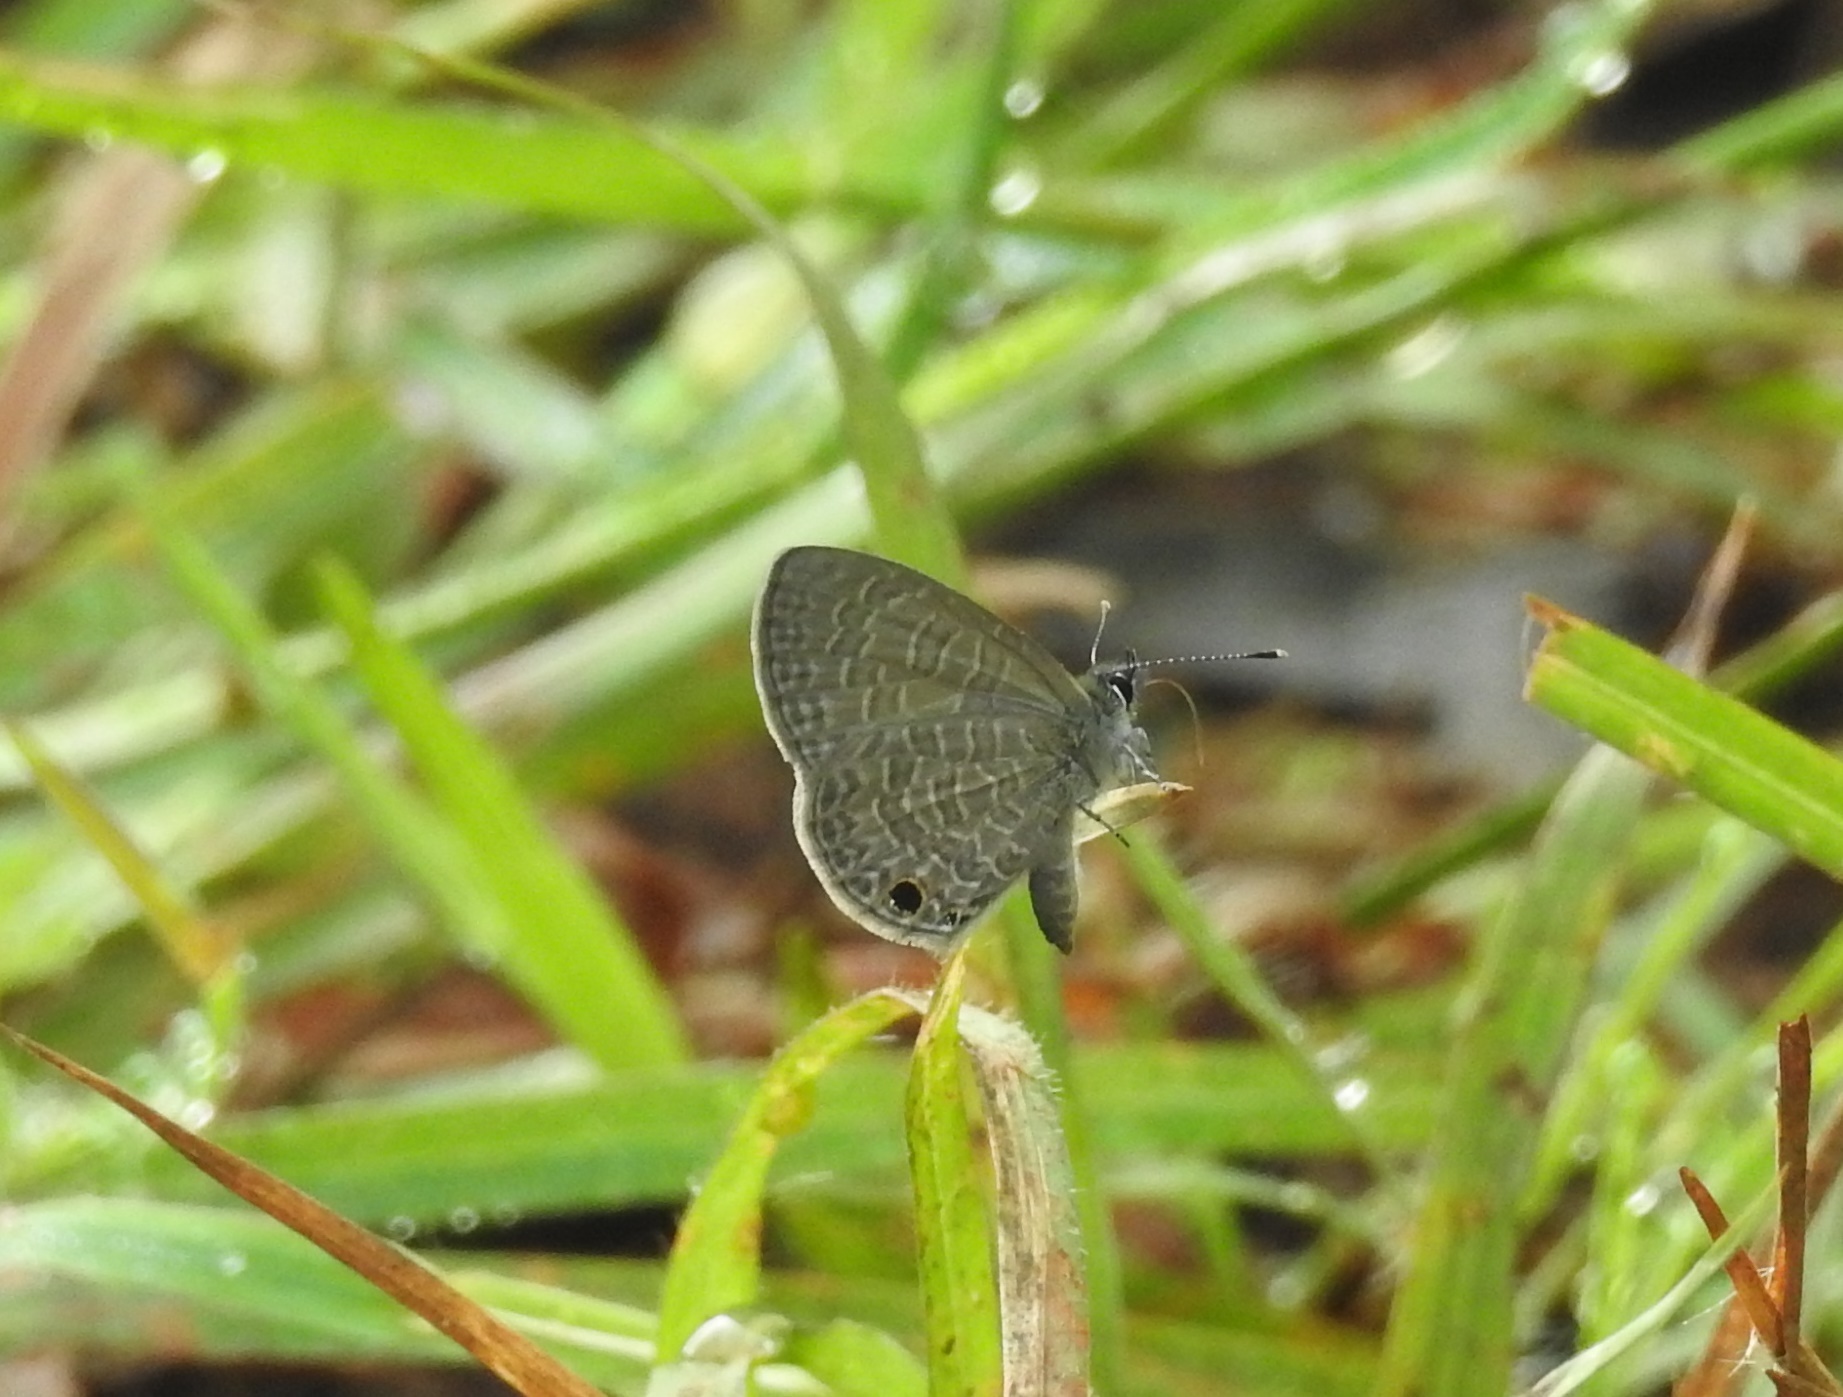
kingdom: Animalia
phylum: Arthropoda
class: Insecta
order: Lepidoptera
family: Lycaenidae
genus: Prosotas
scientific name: Prosotas dubiosa
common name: Tailless lineblue
